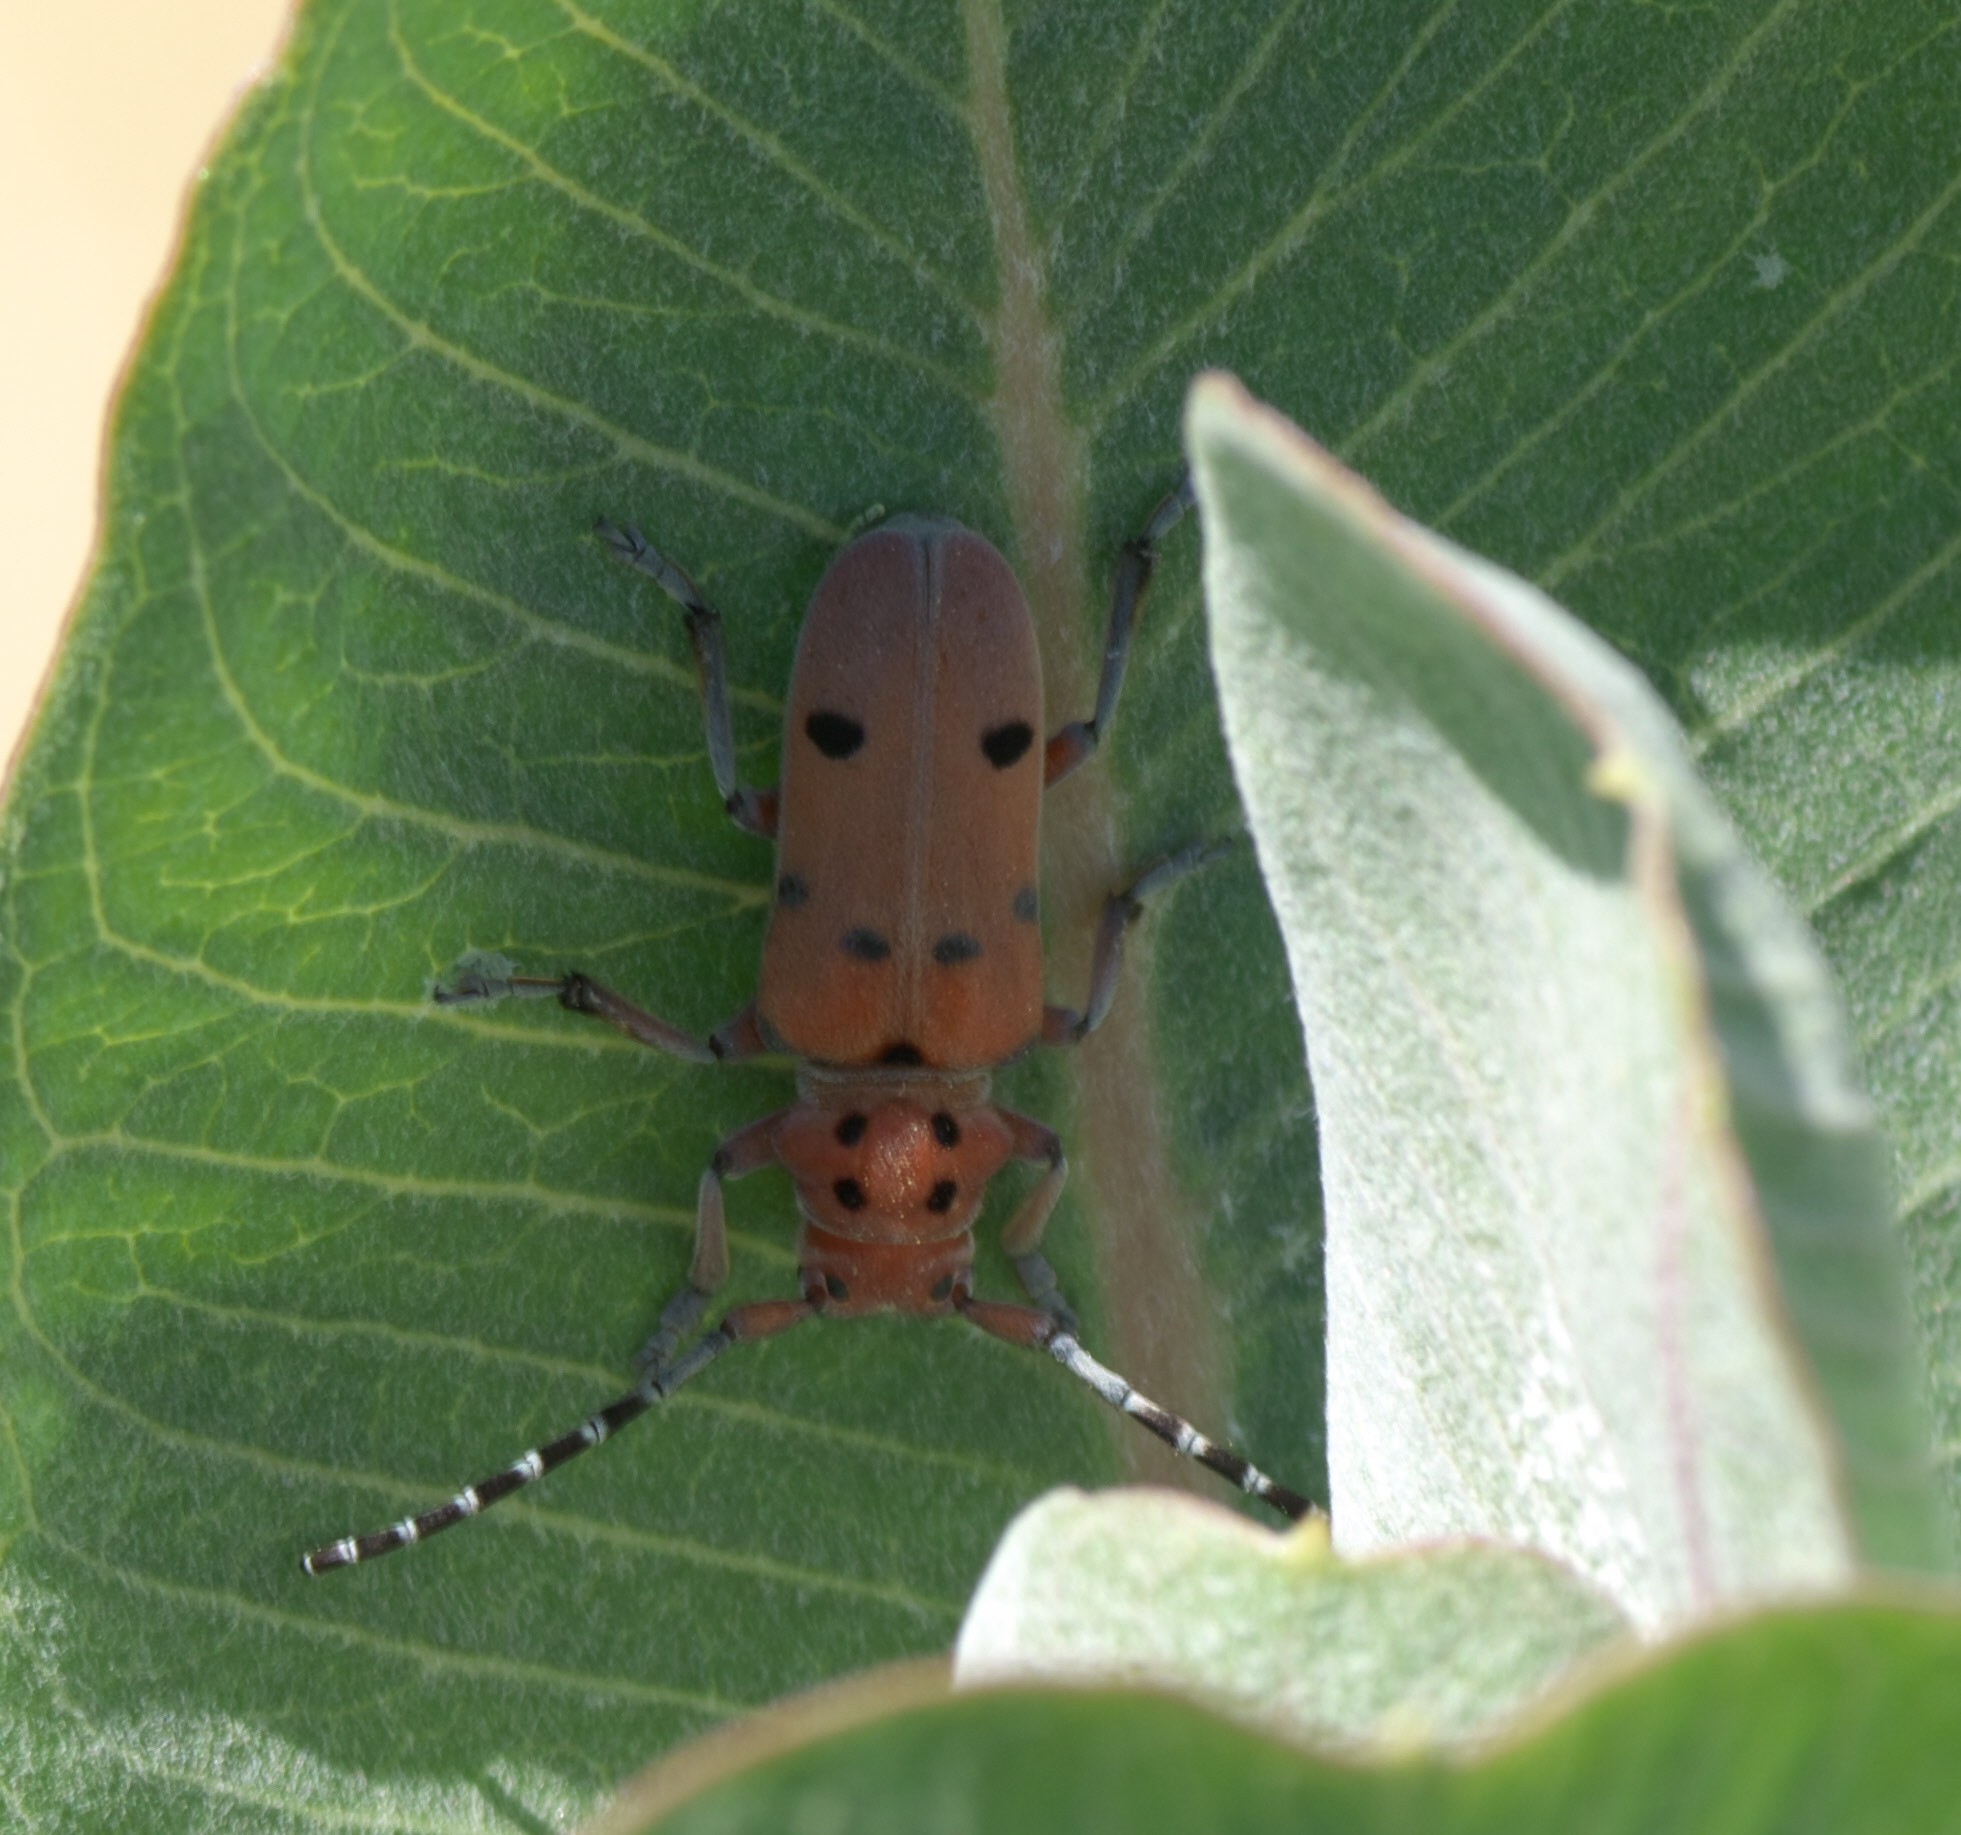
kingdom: Animalia
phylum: Arthropoda
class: Insecta
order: Coleoptera
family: Cerambycidae
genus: Tetraopes
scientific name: Tetraopes femoratus
